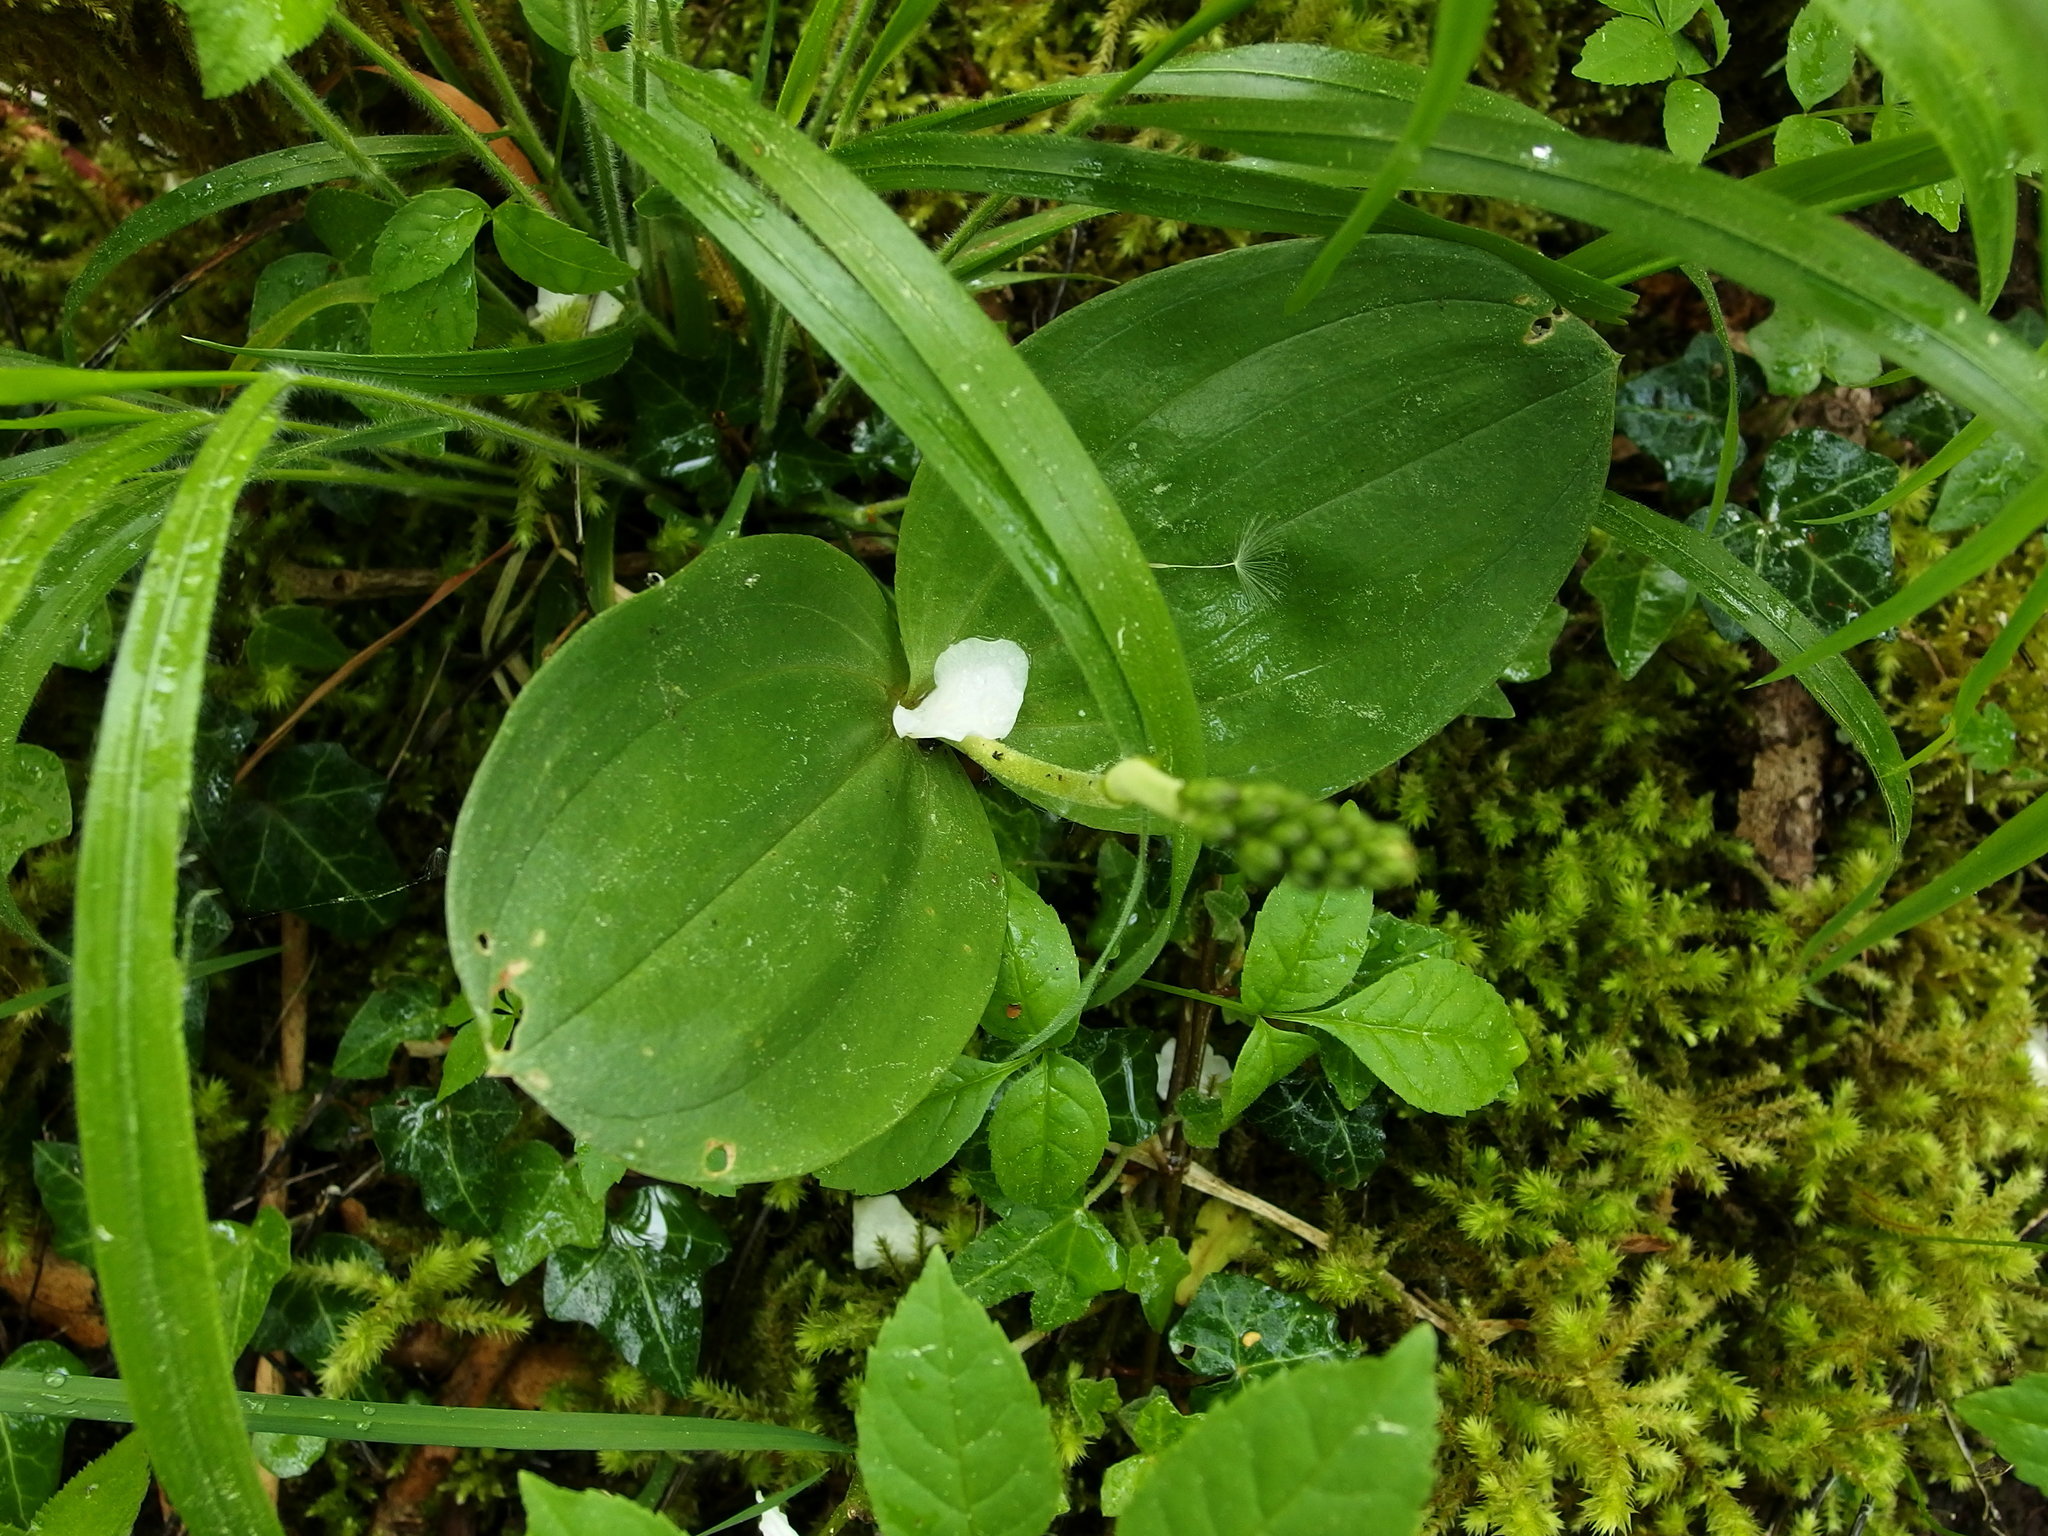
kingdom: Plantae
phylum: Tracheophyta
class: Liliopsida
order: Asparagales
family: Orchidaceae
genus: Neottia
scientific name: Neottia ovata
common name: Common twayblade
